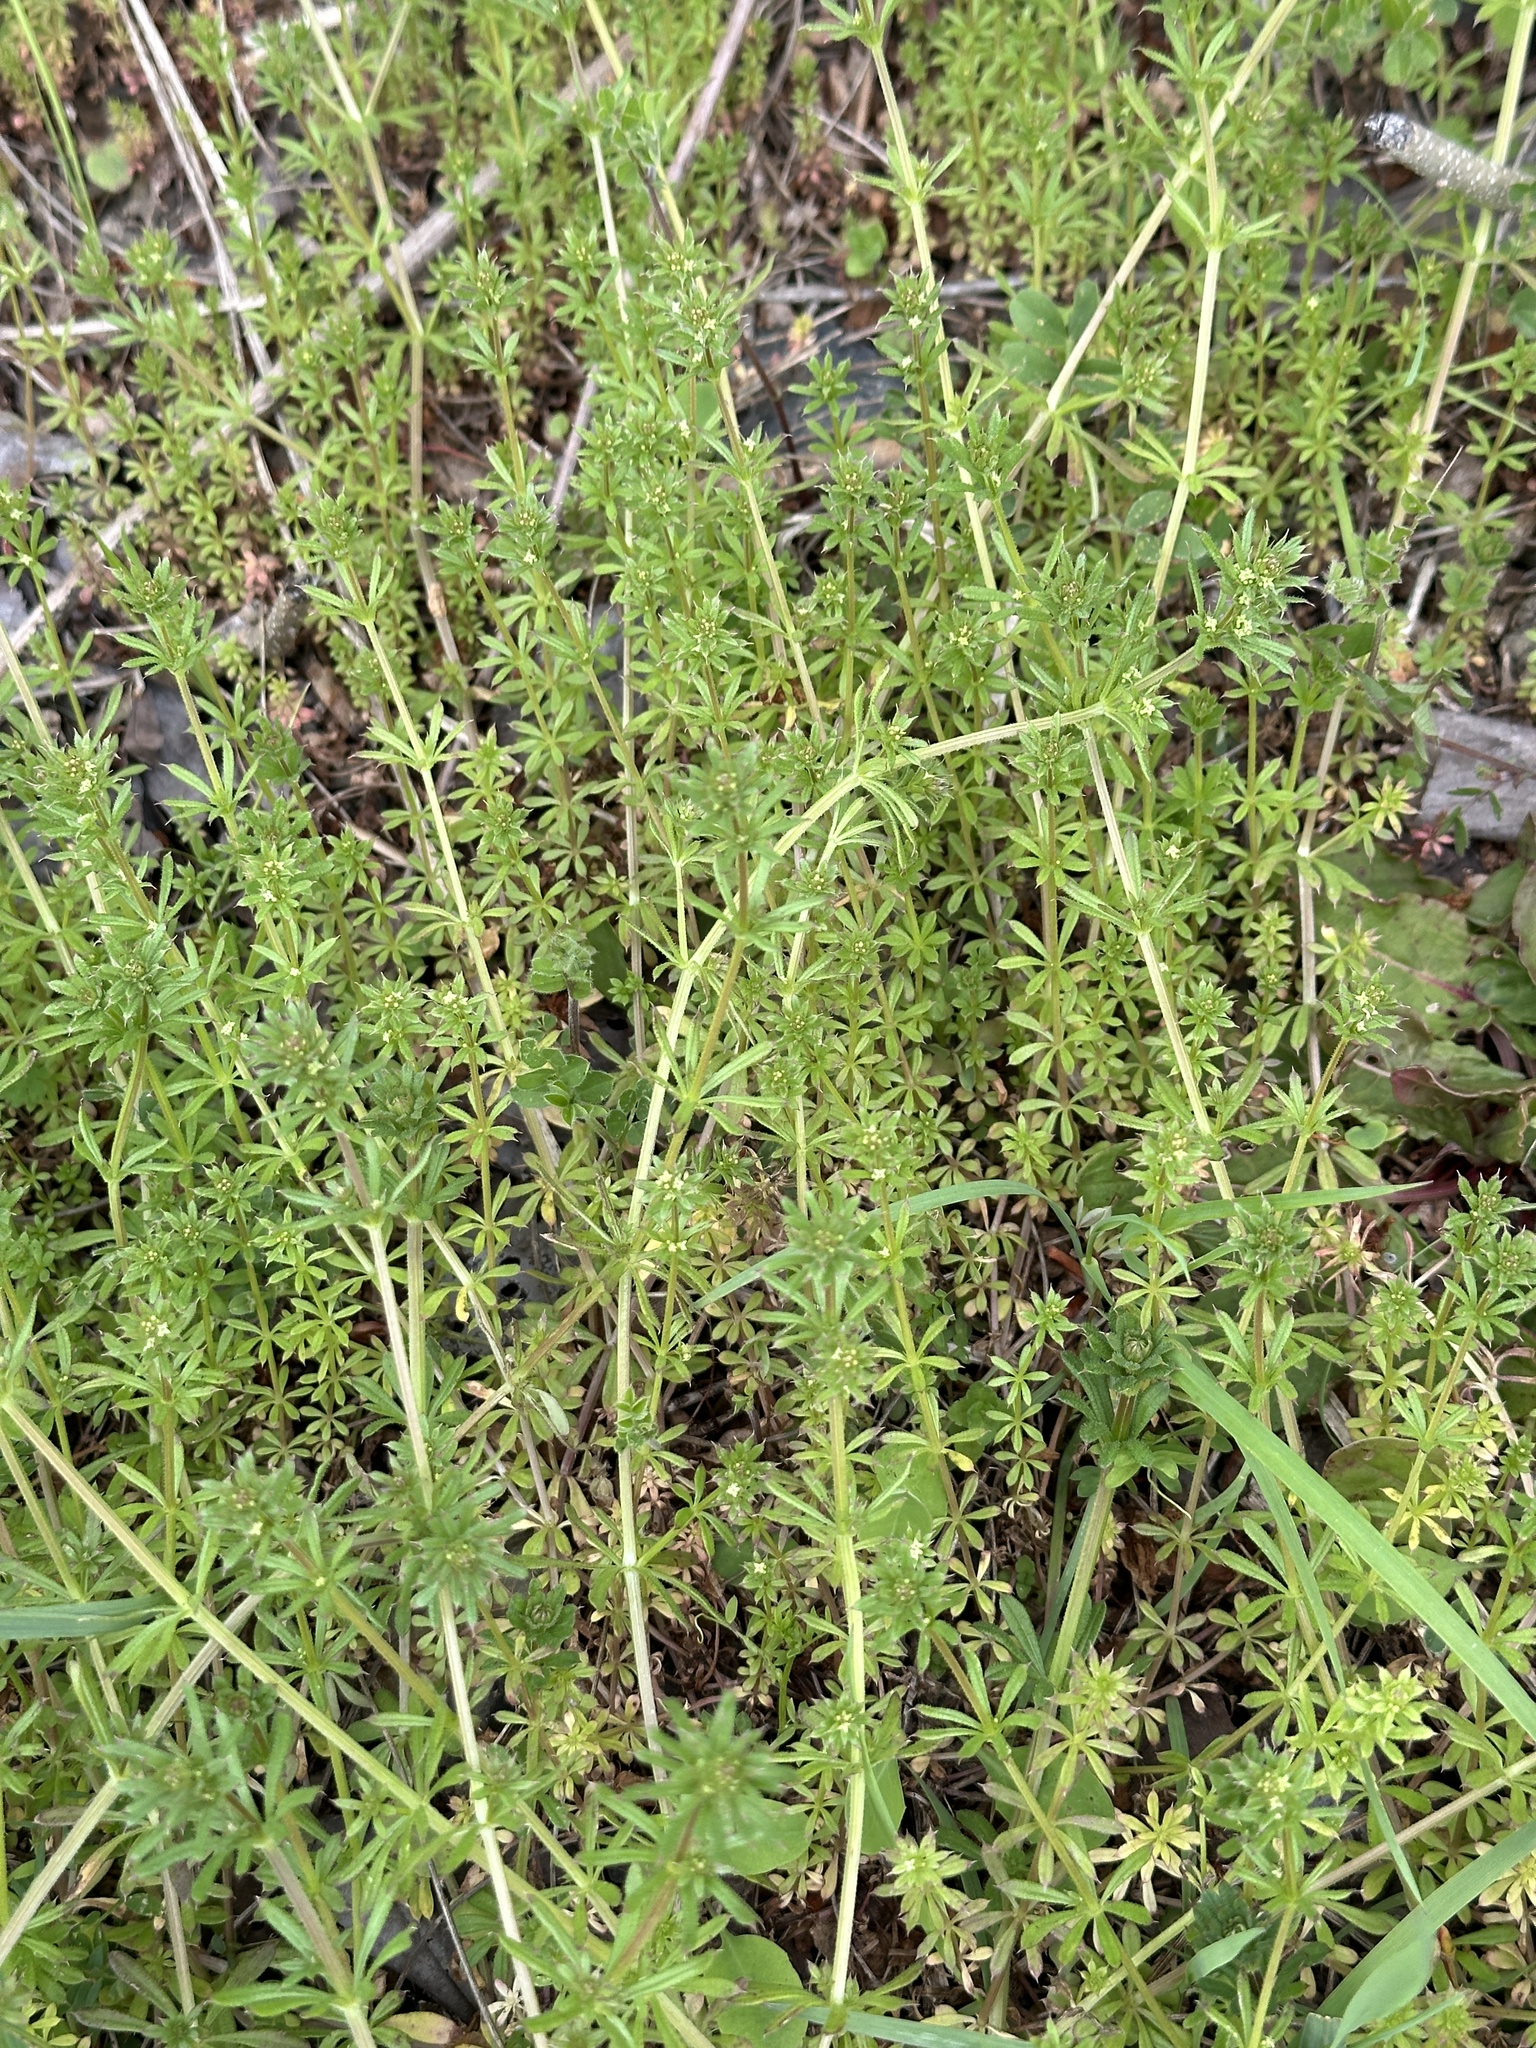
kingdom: Plantae
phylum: Tracheophyta
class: Magnoliopsida
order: Gentianales
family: Rubiaceae
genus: Galium
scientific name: Galium
